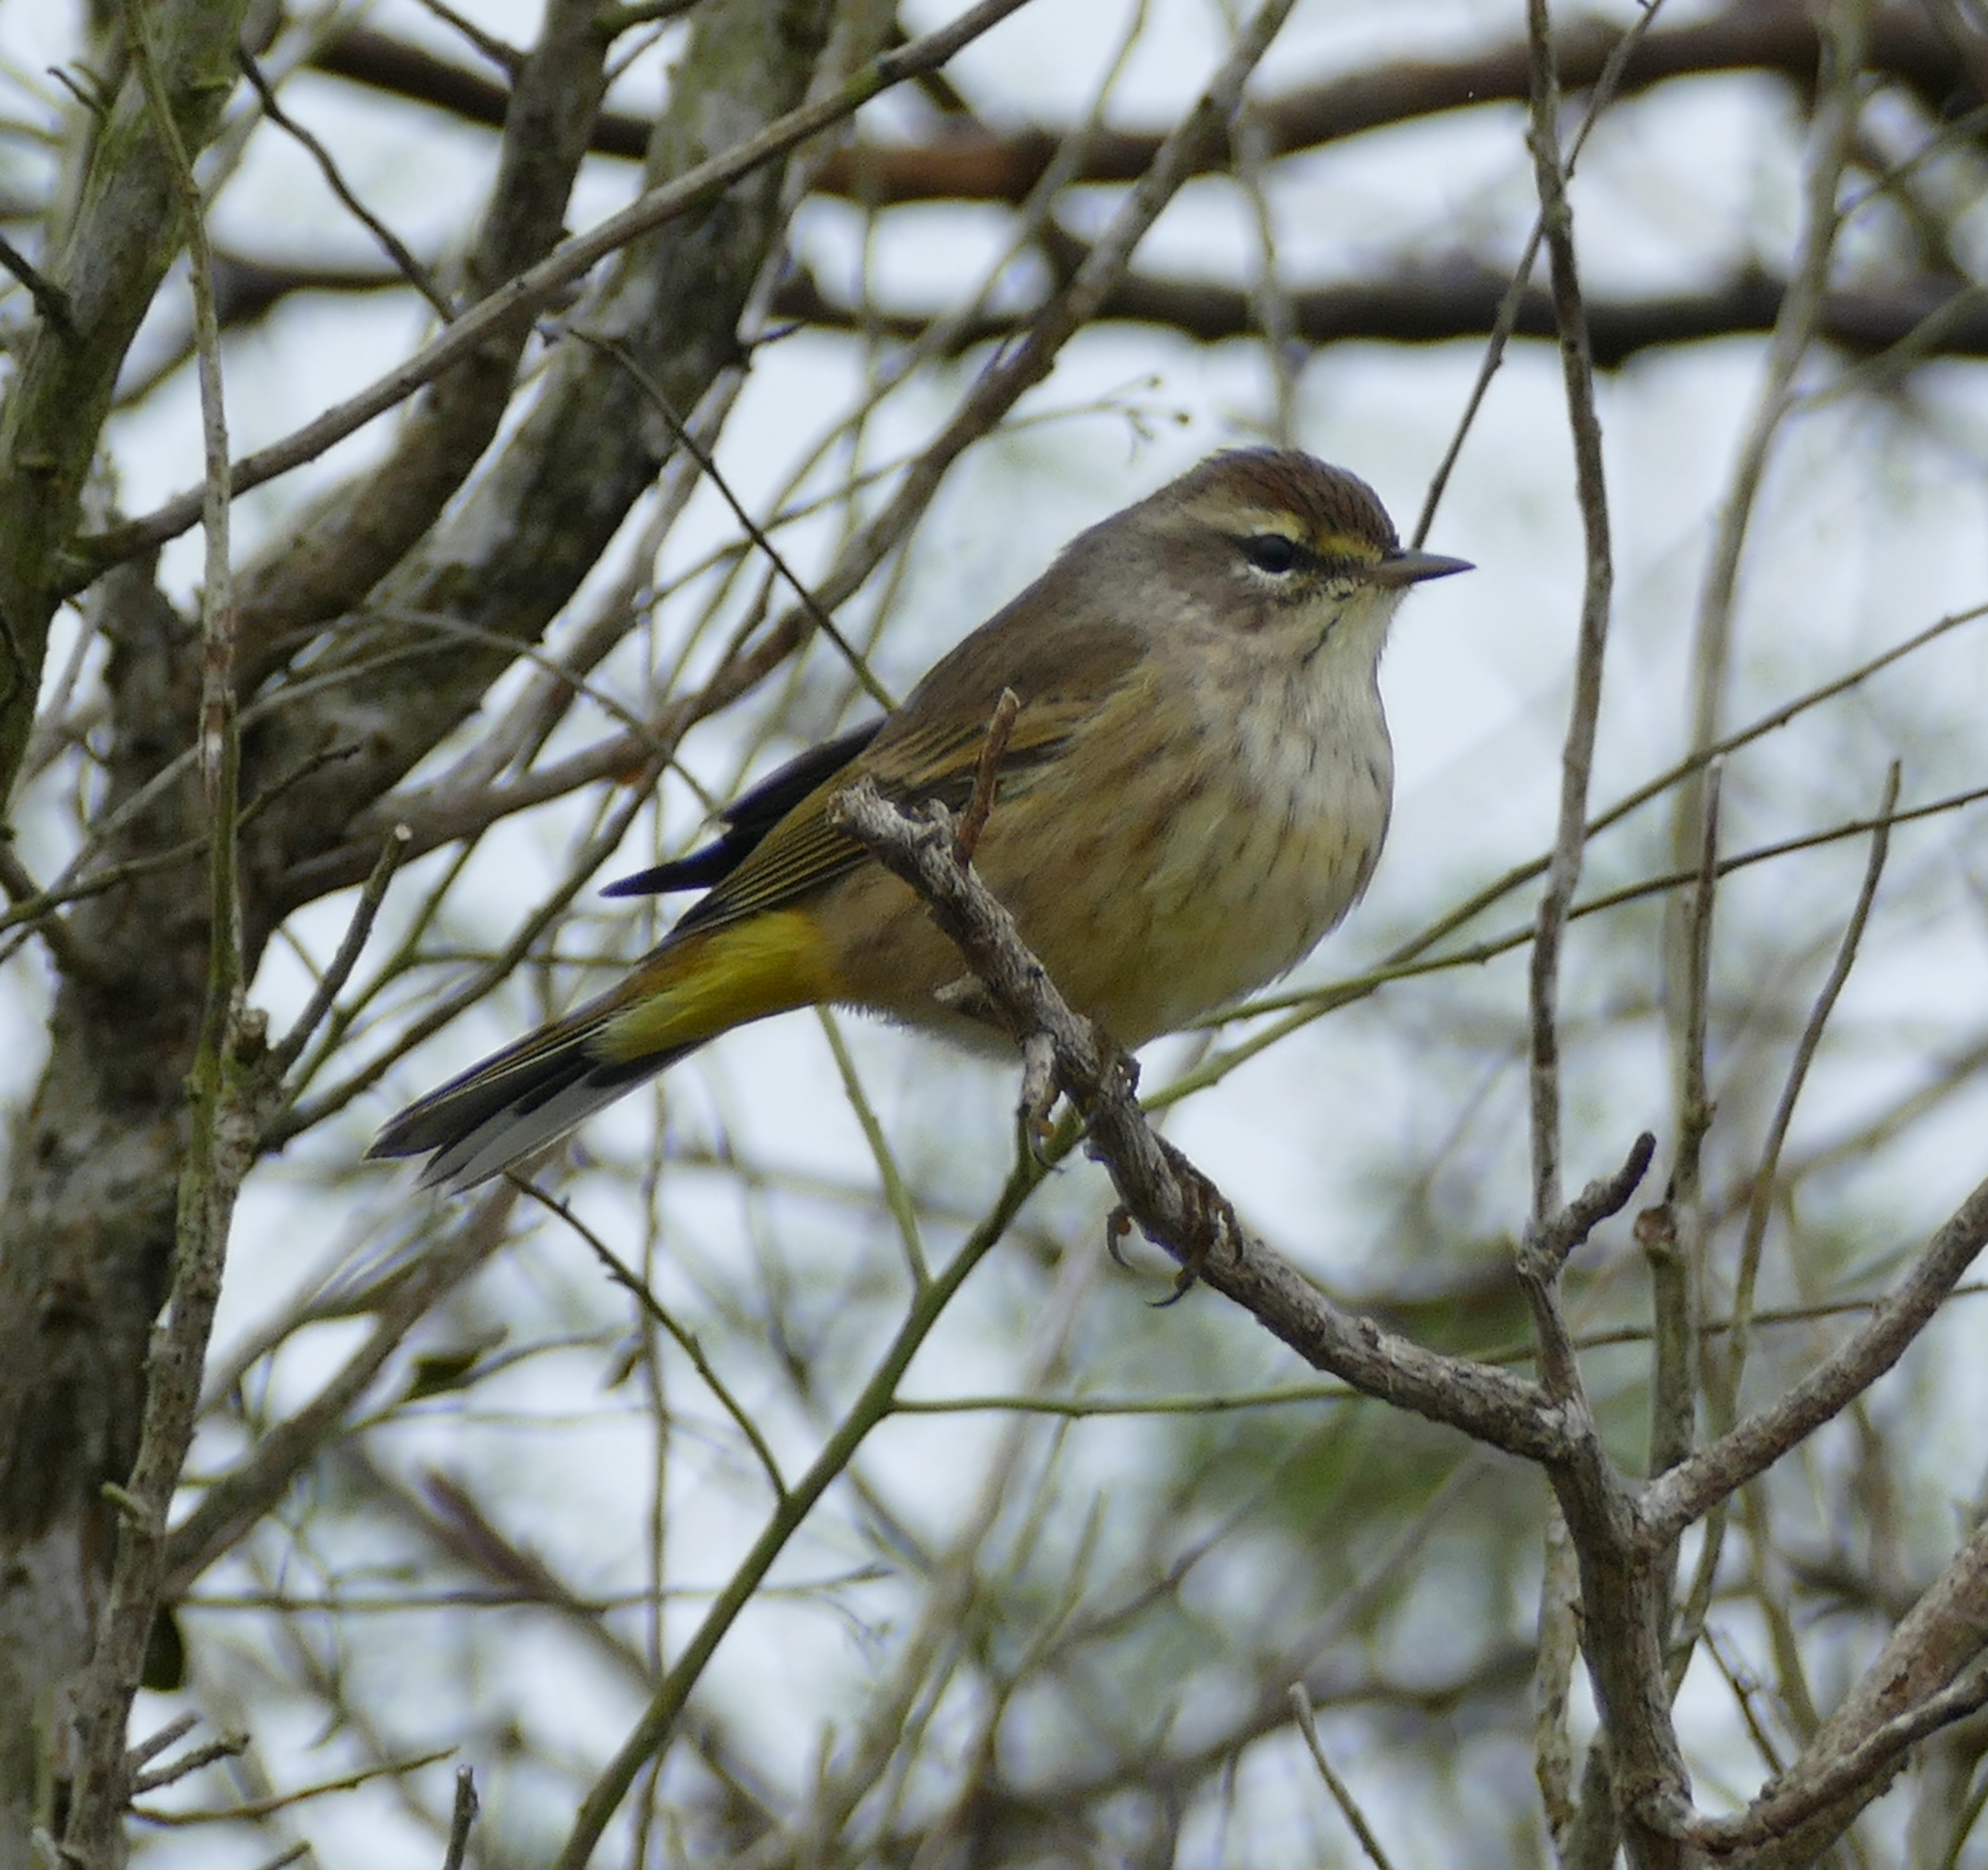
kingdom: Animalia
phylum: Chordata
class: Aves
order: Passeriformes
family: Parulidae
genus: Setophaga
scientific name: Setophaga palmarum
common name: Palm warbler
